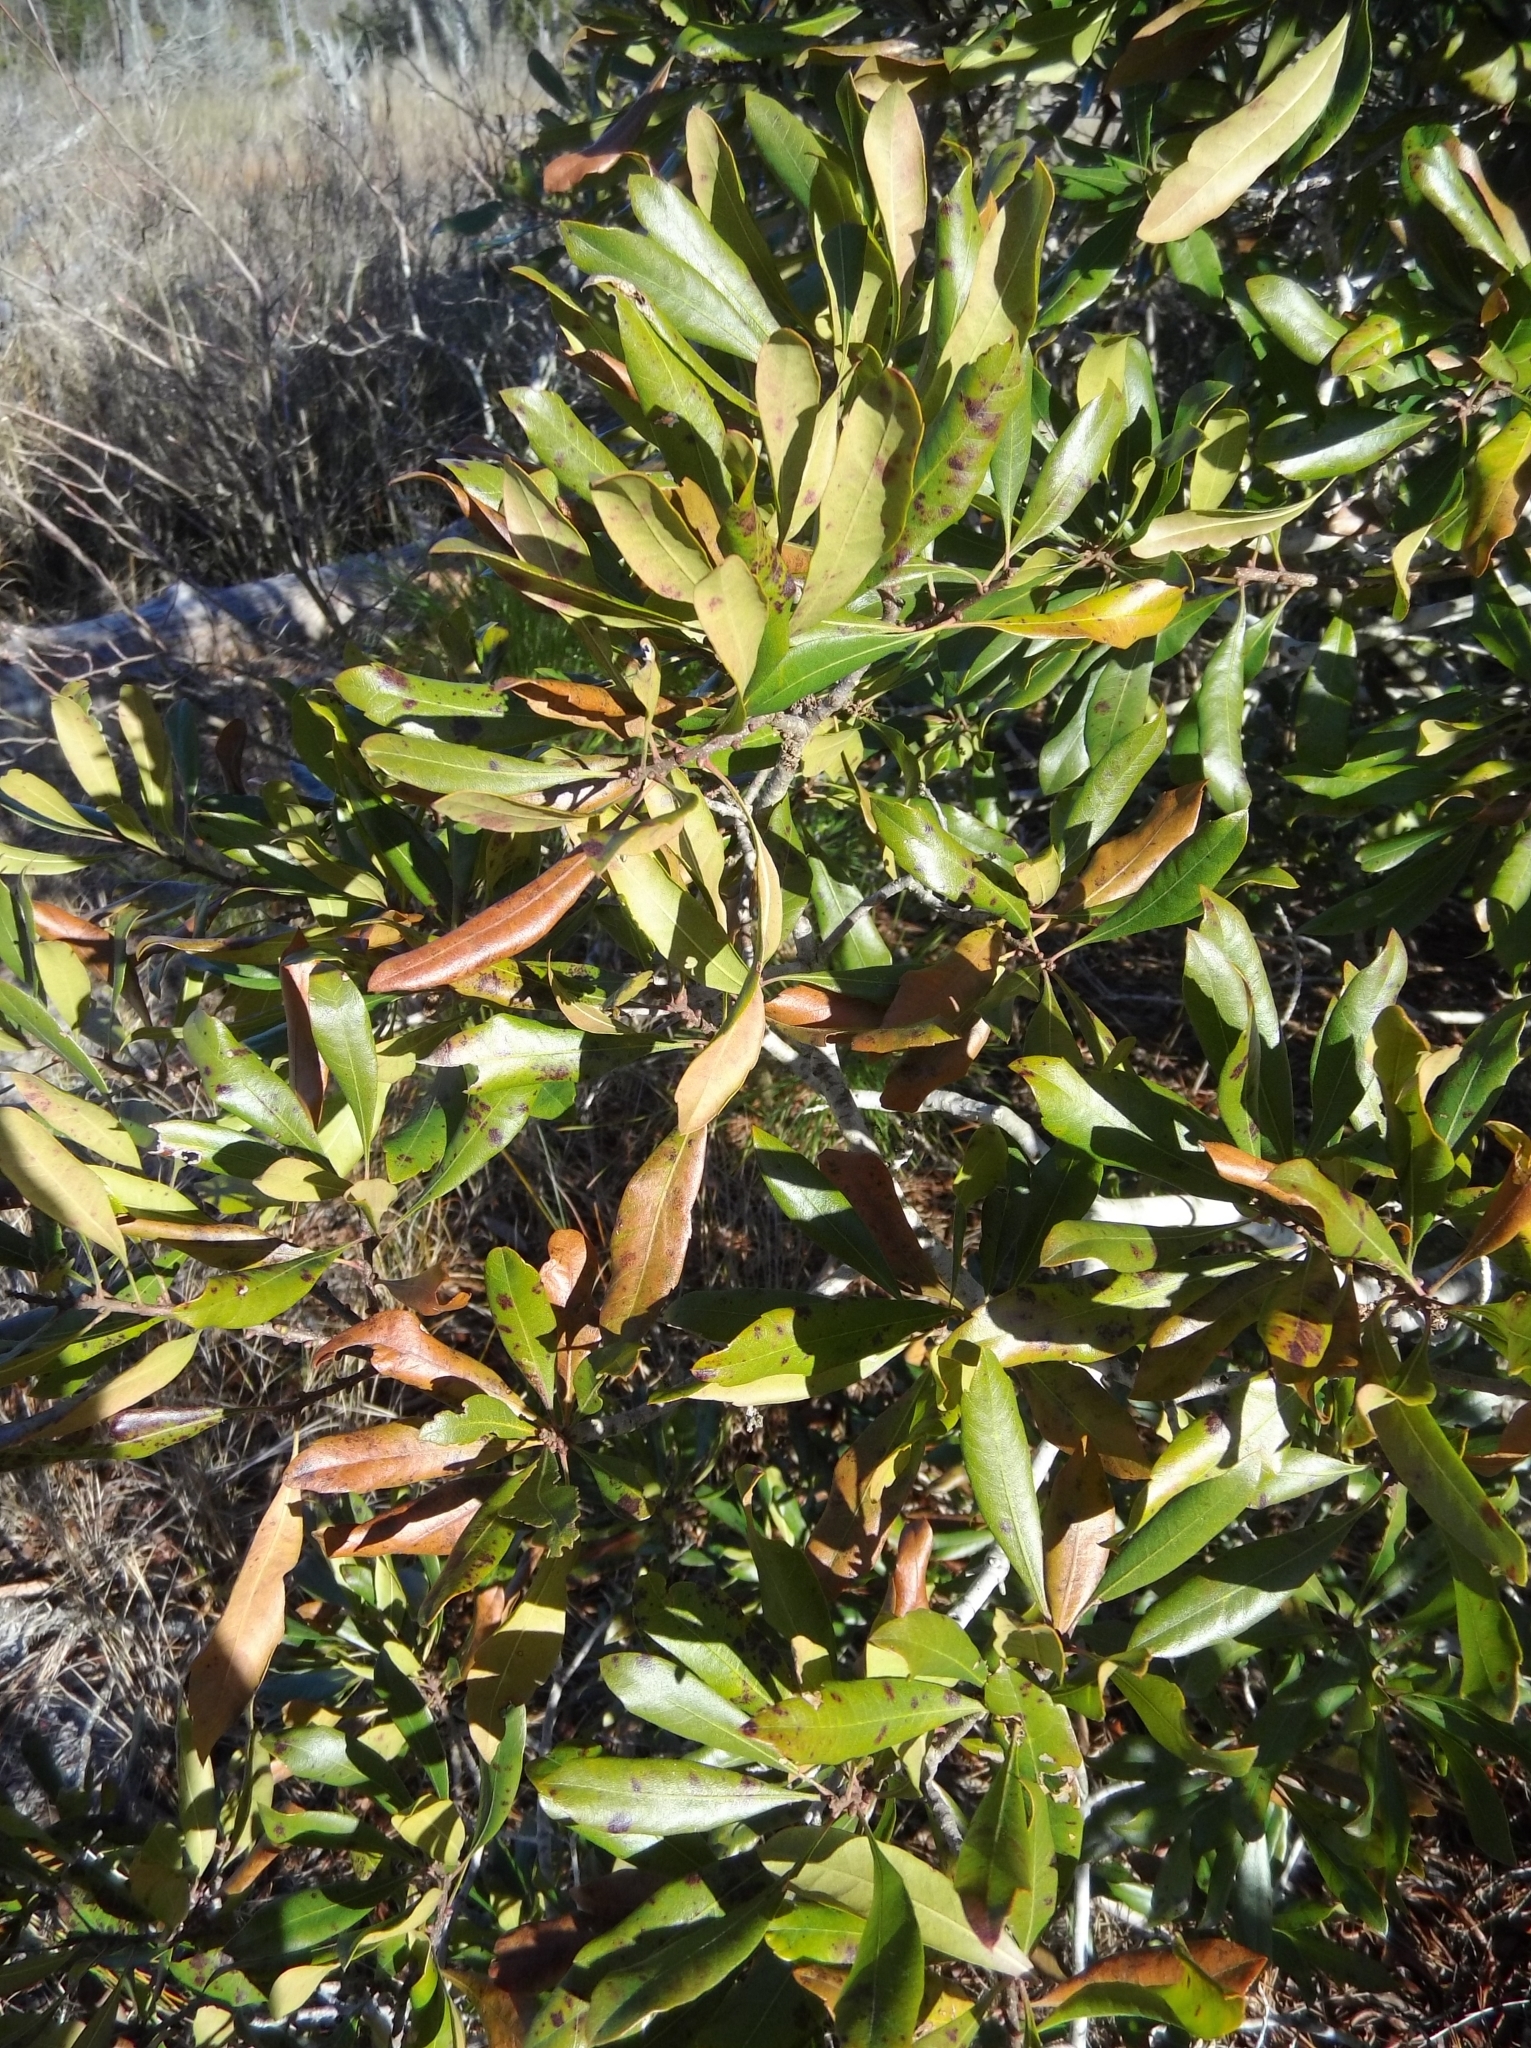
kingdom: Plantae
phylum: Tracheophyta
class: Magnoliopsida
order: Fagales
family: Myricaceae
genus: Morella
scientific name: Morella cerifera
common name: Wax myrtle
